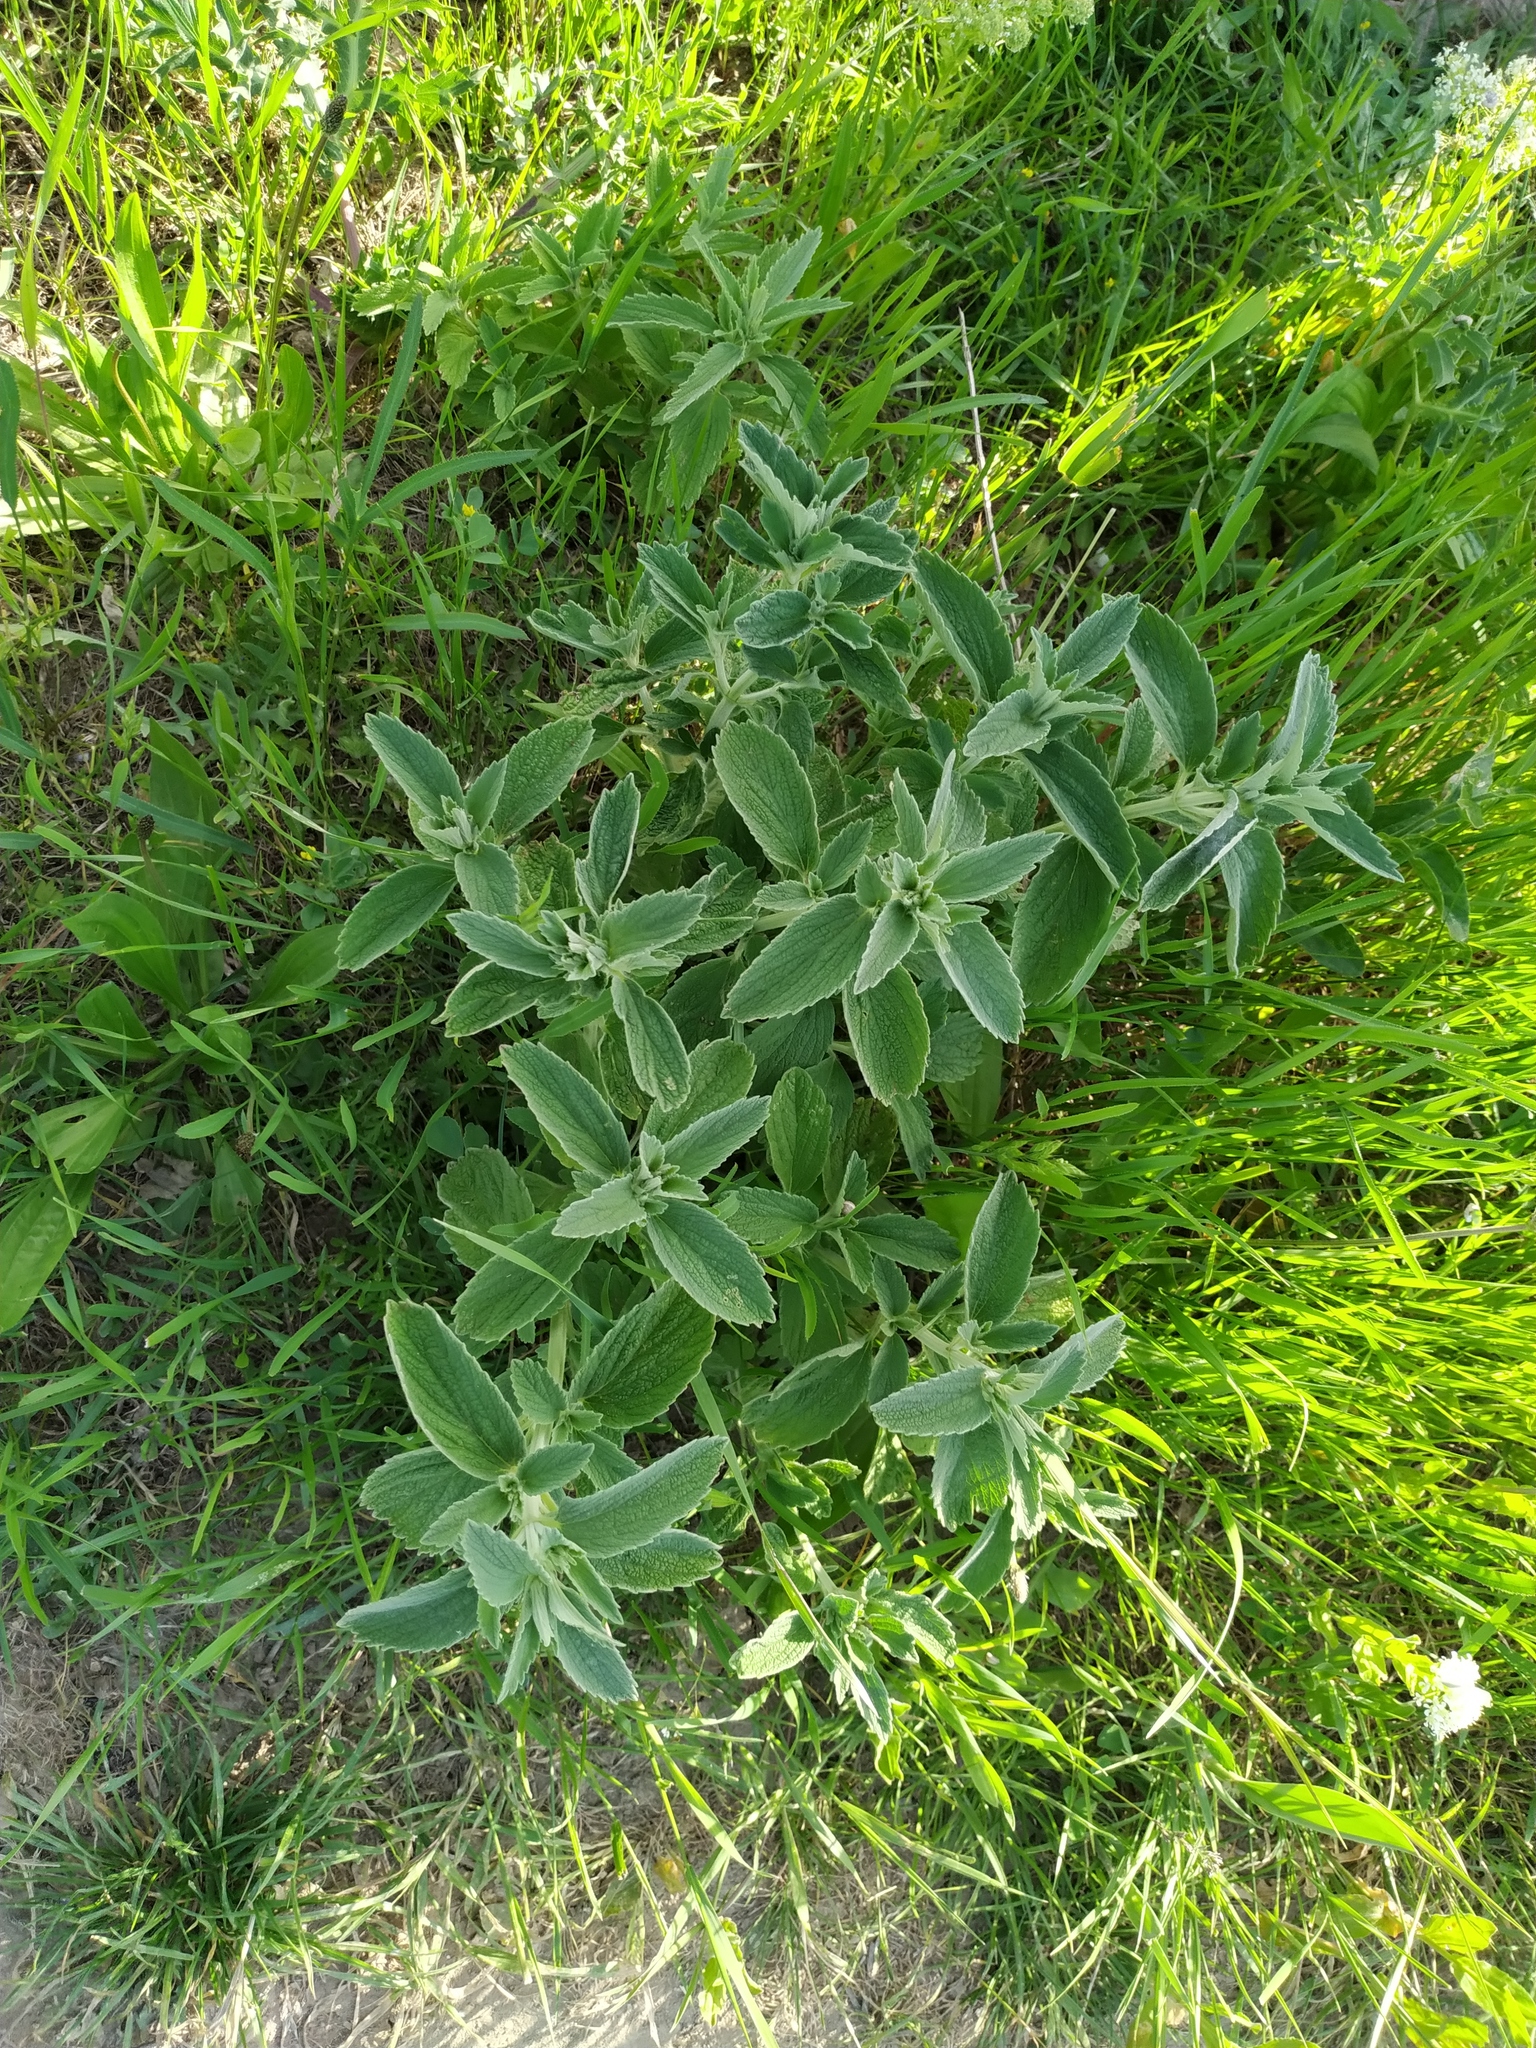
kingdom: Plantae
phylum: Tracheophyta
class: Magnoliopsida
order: Lamiales
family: Lamiaceae
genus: Marrubium
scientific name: Marrubium peregrinum
